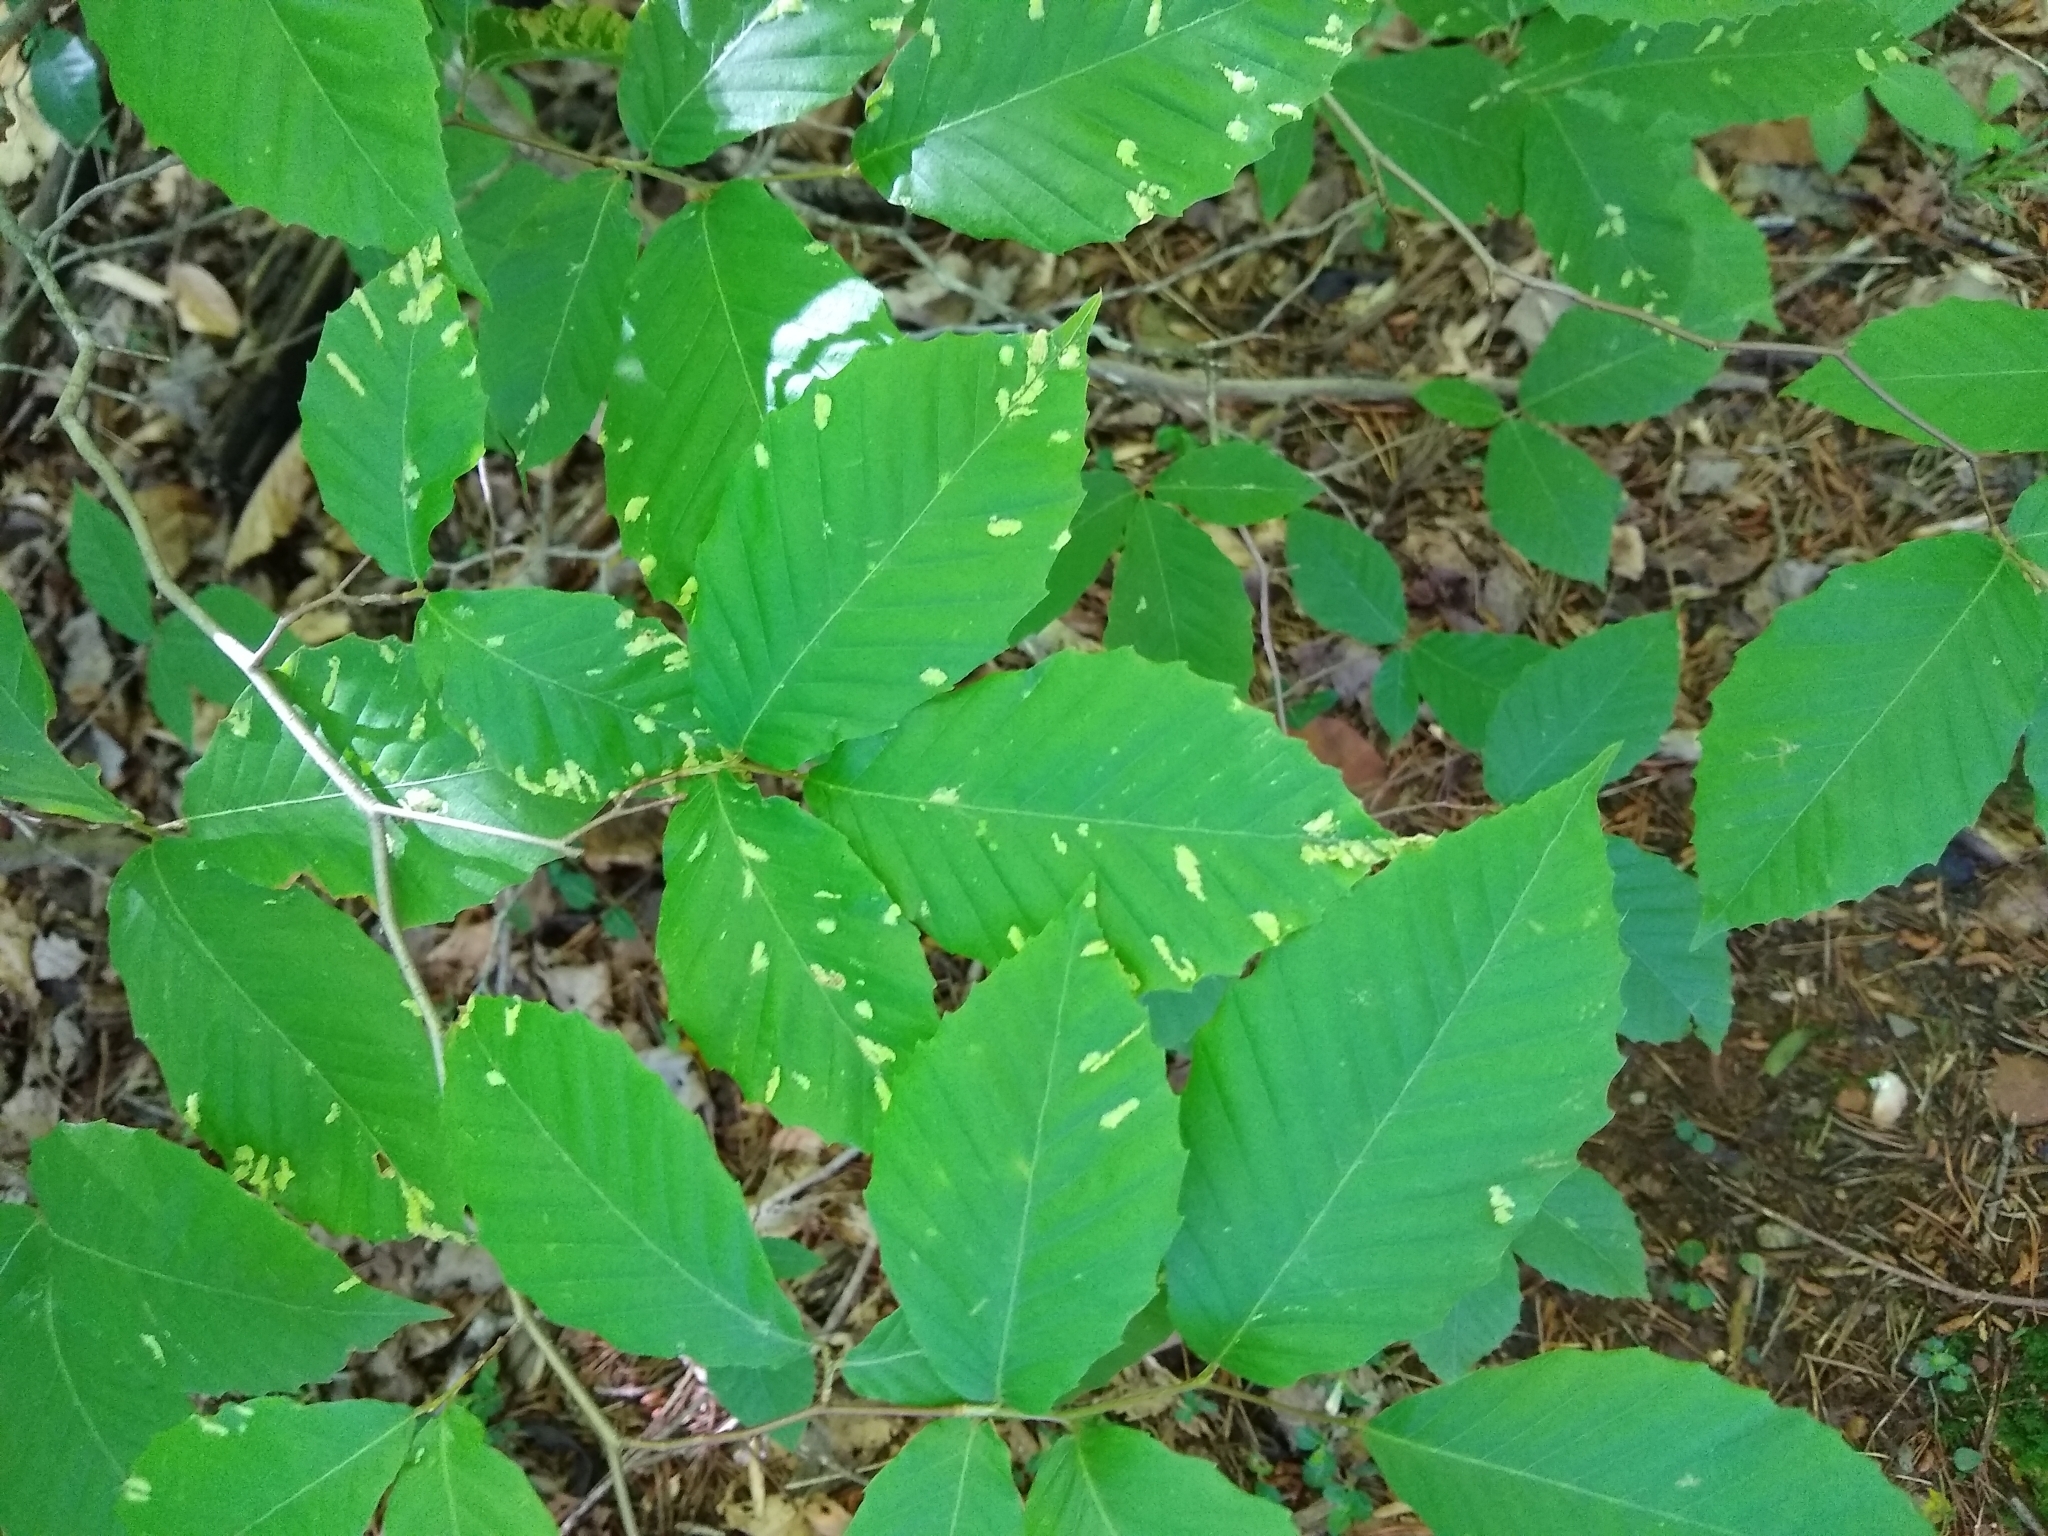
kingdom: Animalia
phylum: Arthropoda
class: Arachnida
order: Trombidiformes
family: Eriophyidae
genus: Acalitus
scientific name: Acalitus
